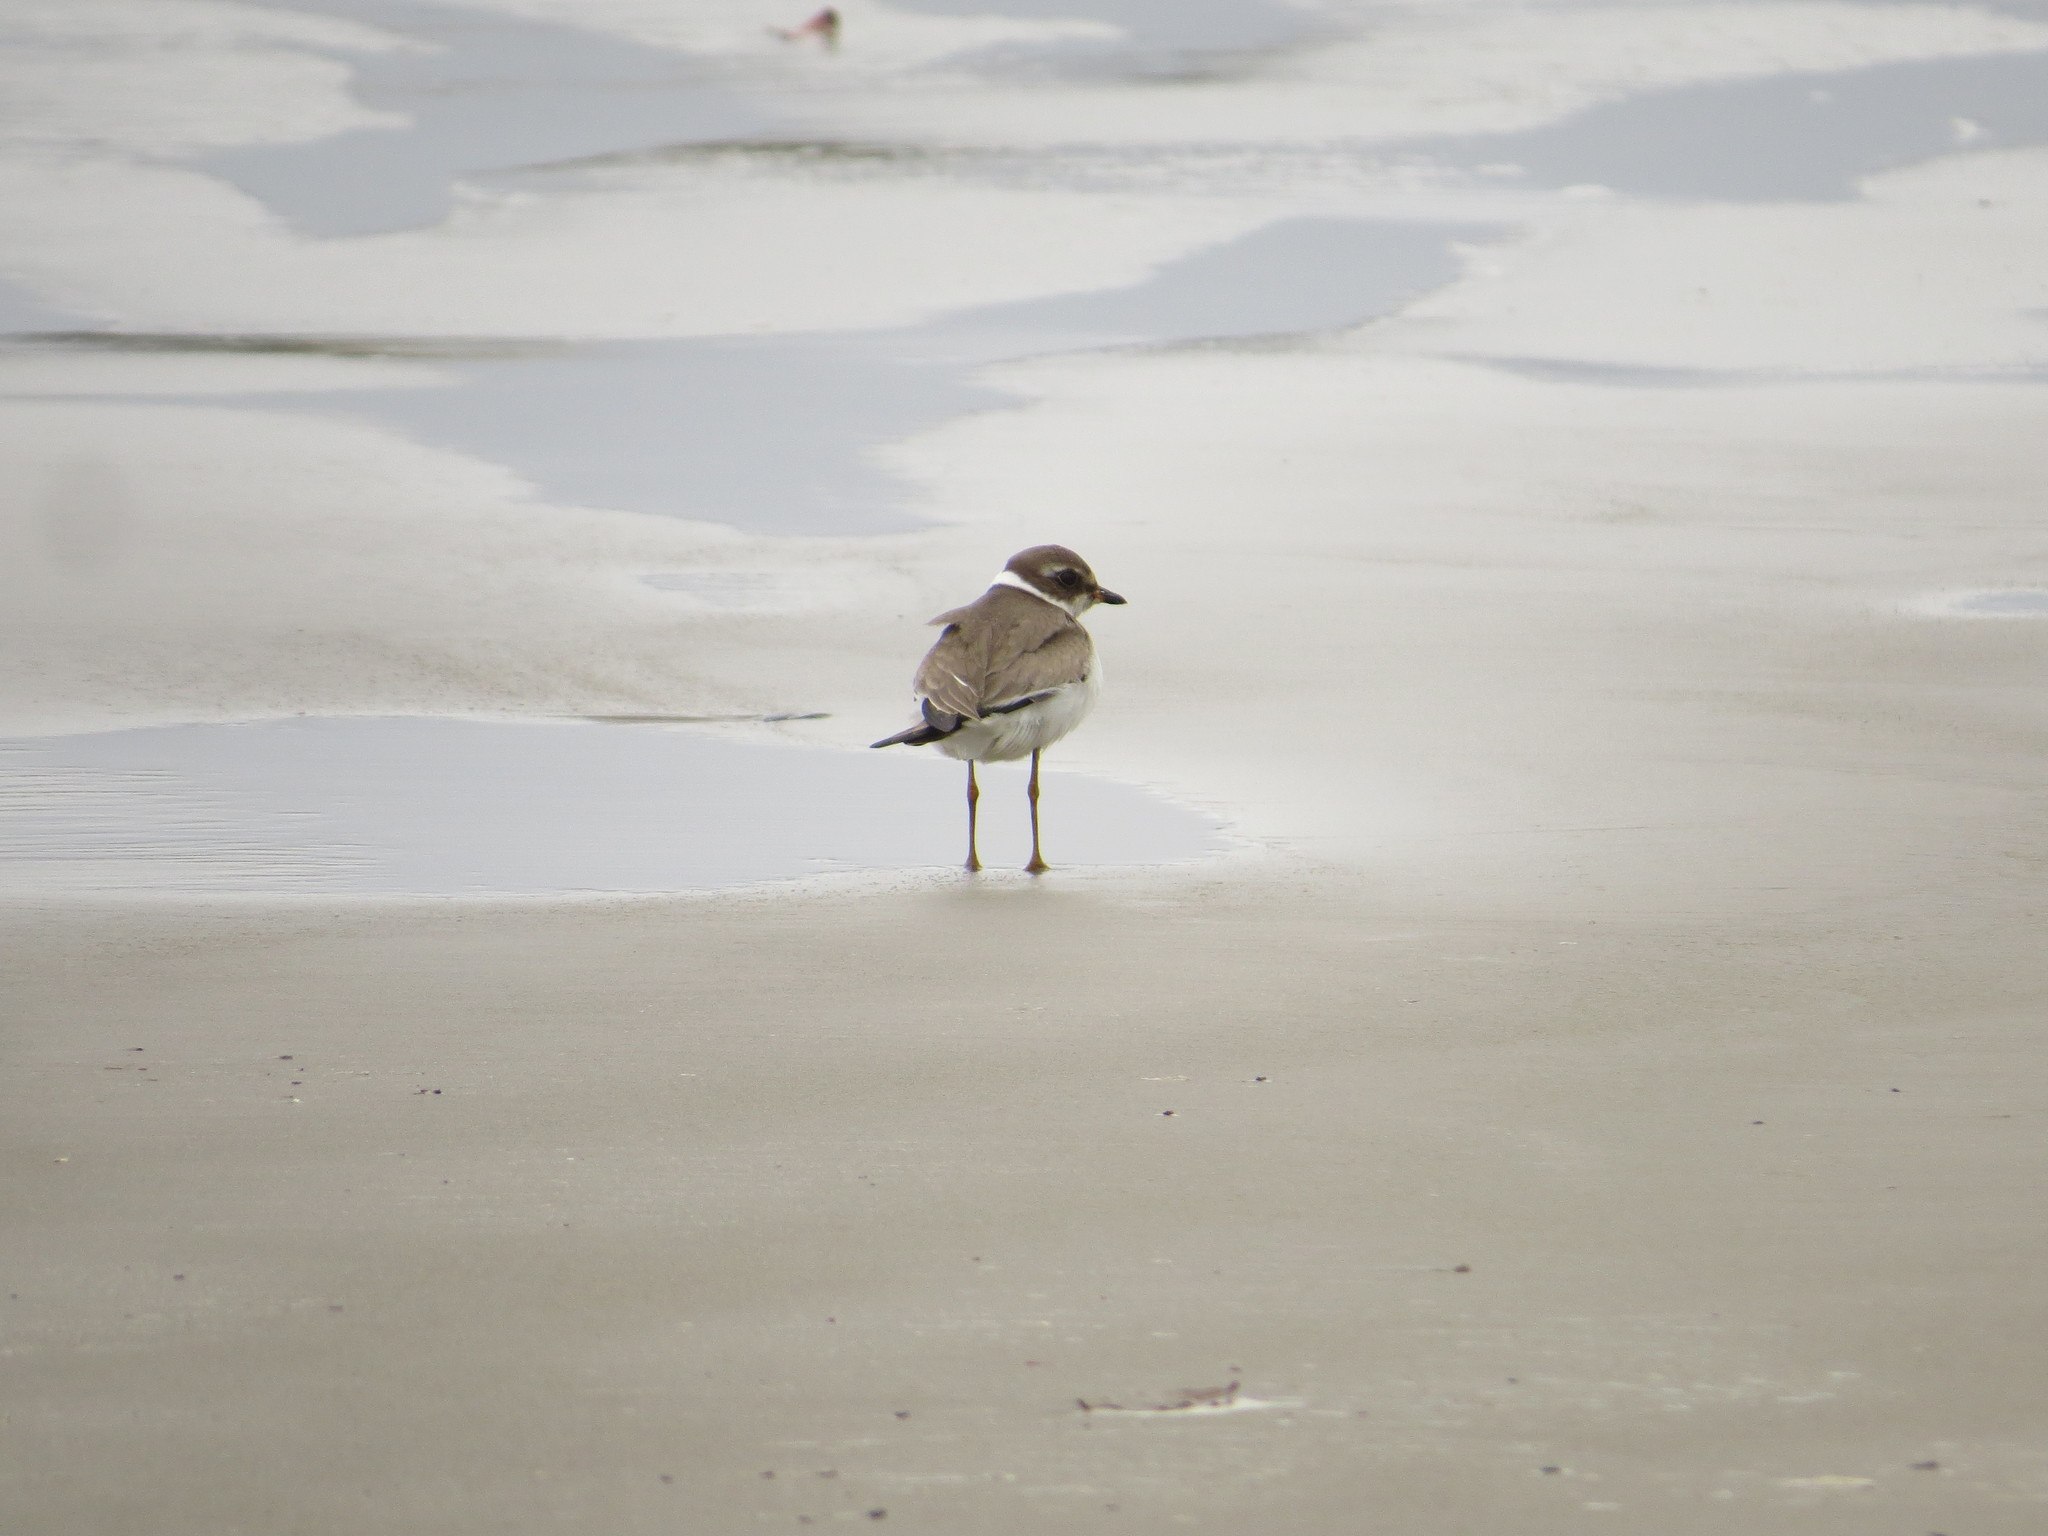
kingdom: Animalia
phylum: Chordata
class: Aves
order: Charadriiformes
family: Charadriidae
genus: Charadrius
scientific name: Charadrius semipalmatus
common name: Semipalmated plover
